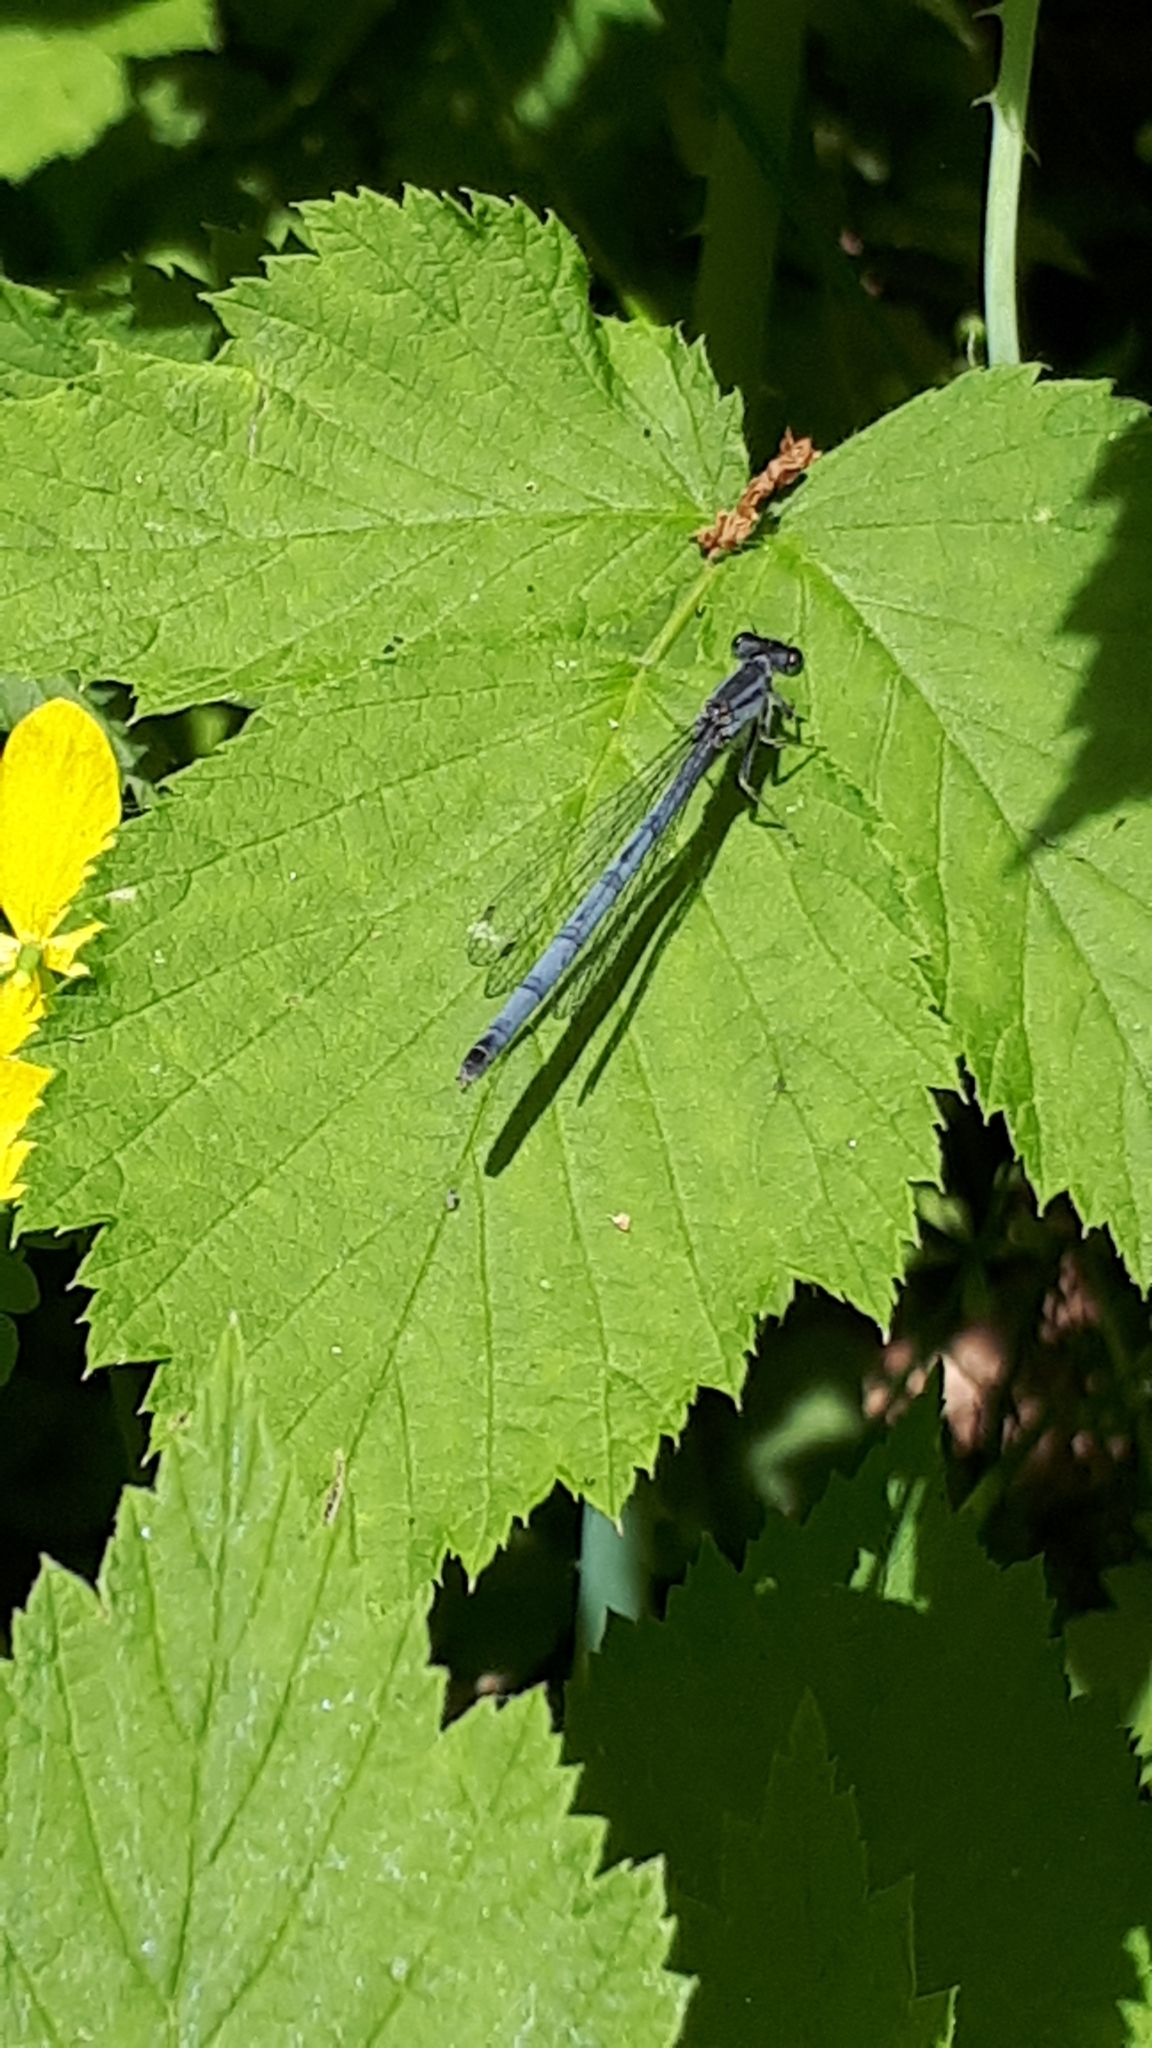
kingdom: Animalia
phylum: Arthropoda
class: Insecta
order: Odonata
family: Coenagrionidae
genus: Ischnura
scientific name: Ischnura verticalis
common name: Eastern forktail
